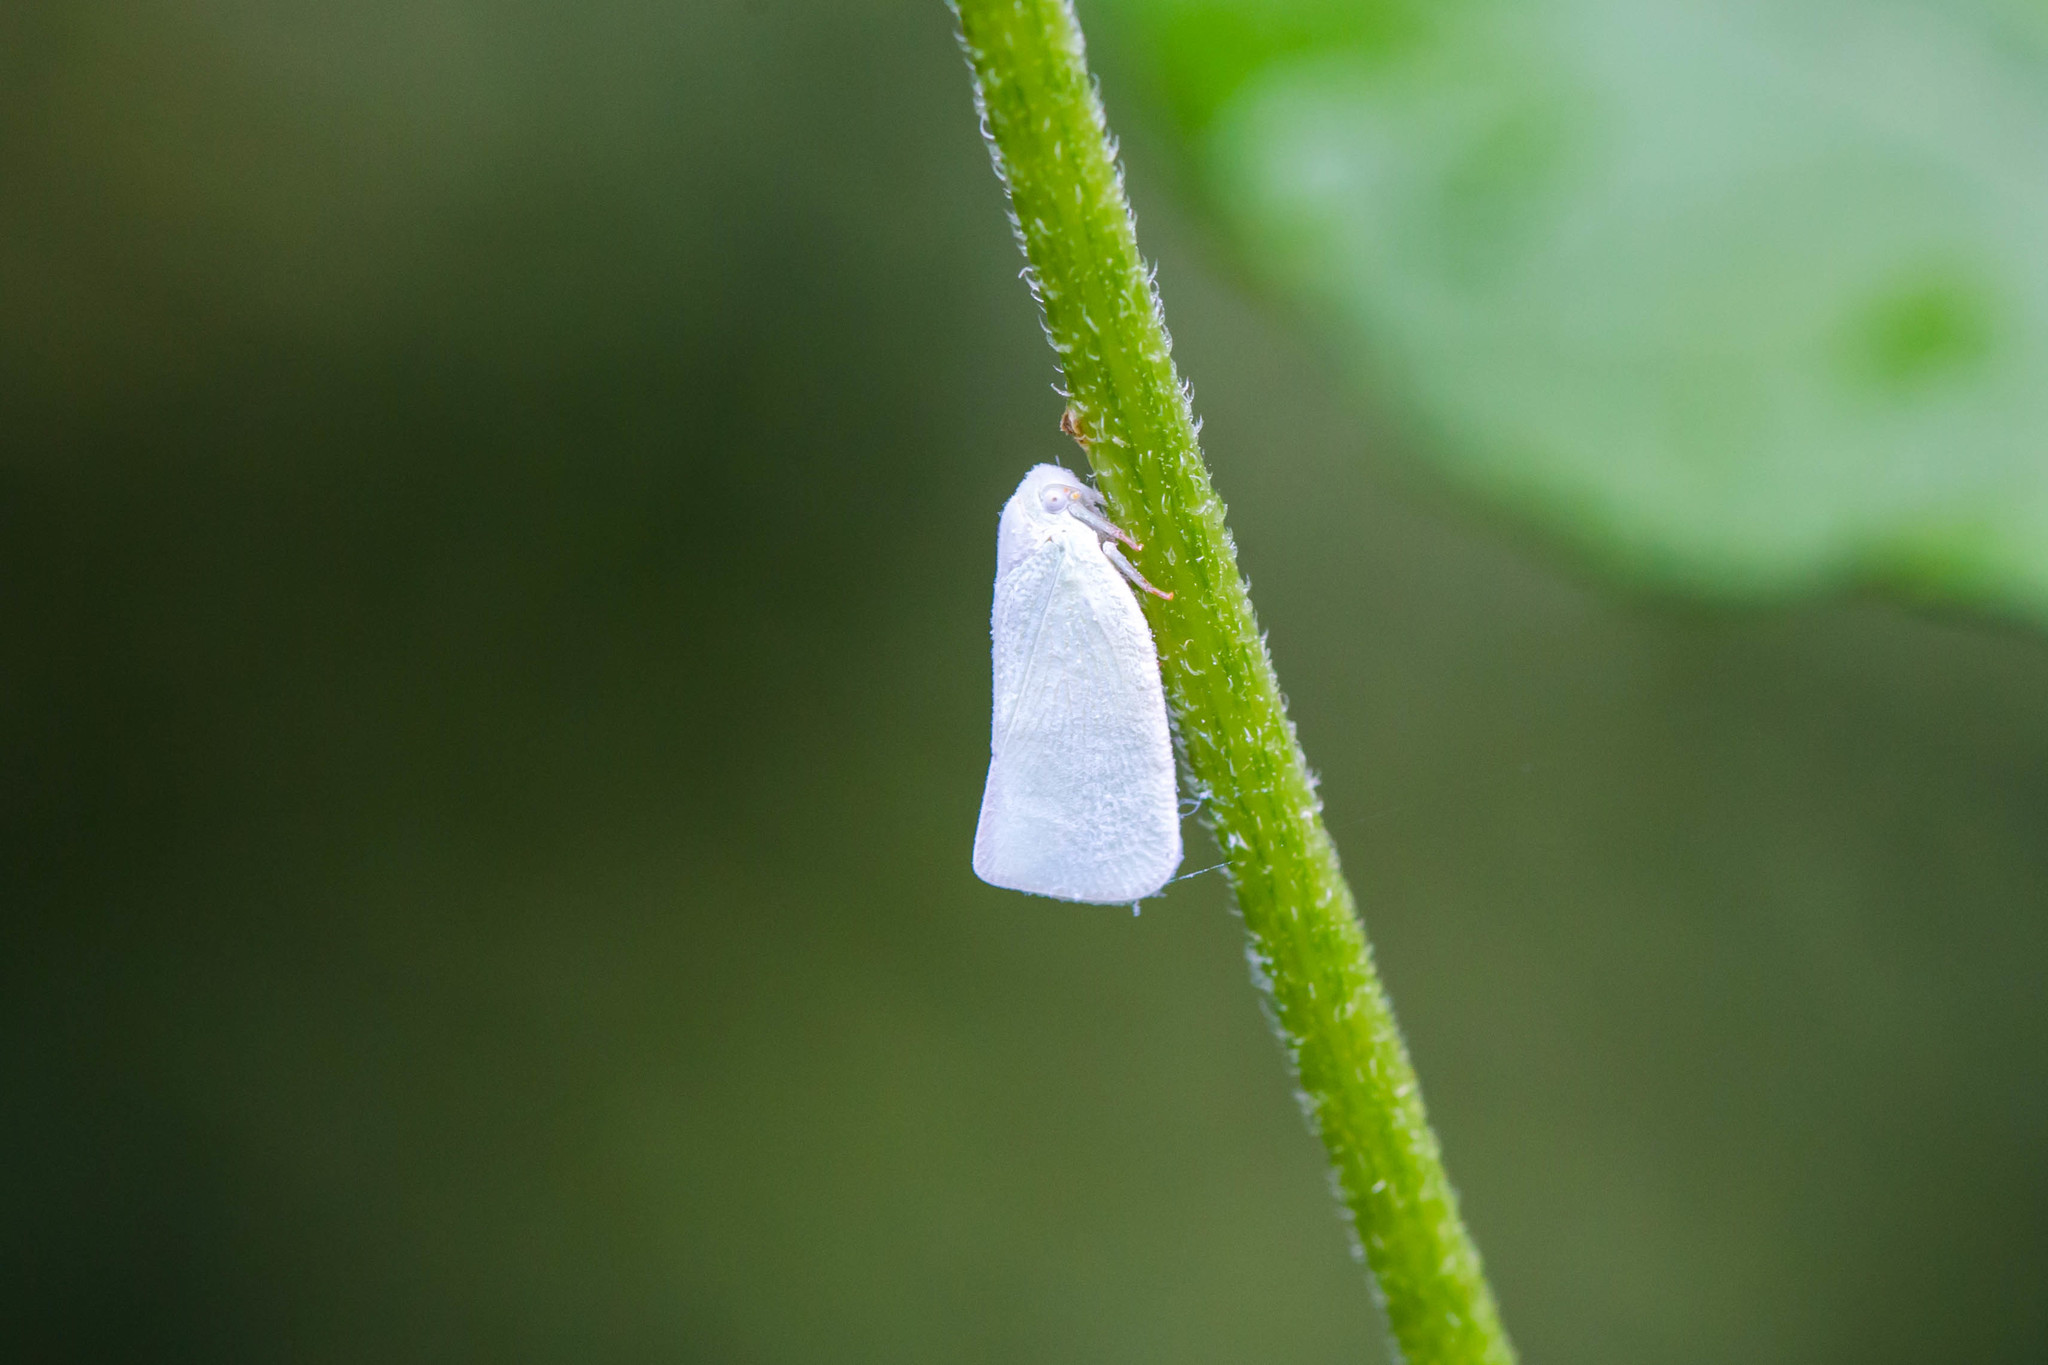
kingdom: Animalia
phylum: Arthropoda
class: Insecta
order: Hemiptera
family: Flatidae
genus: Flatormenis
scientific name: Flatormenis proxima
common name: Northern flatid planthopper
